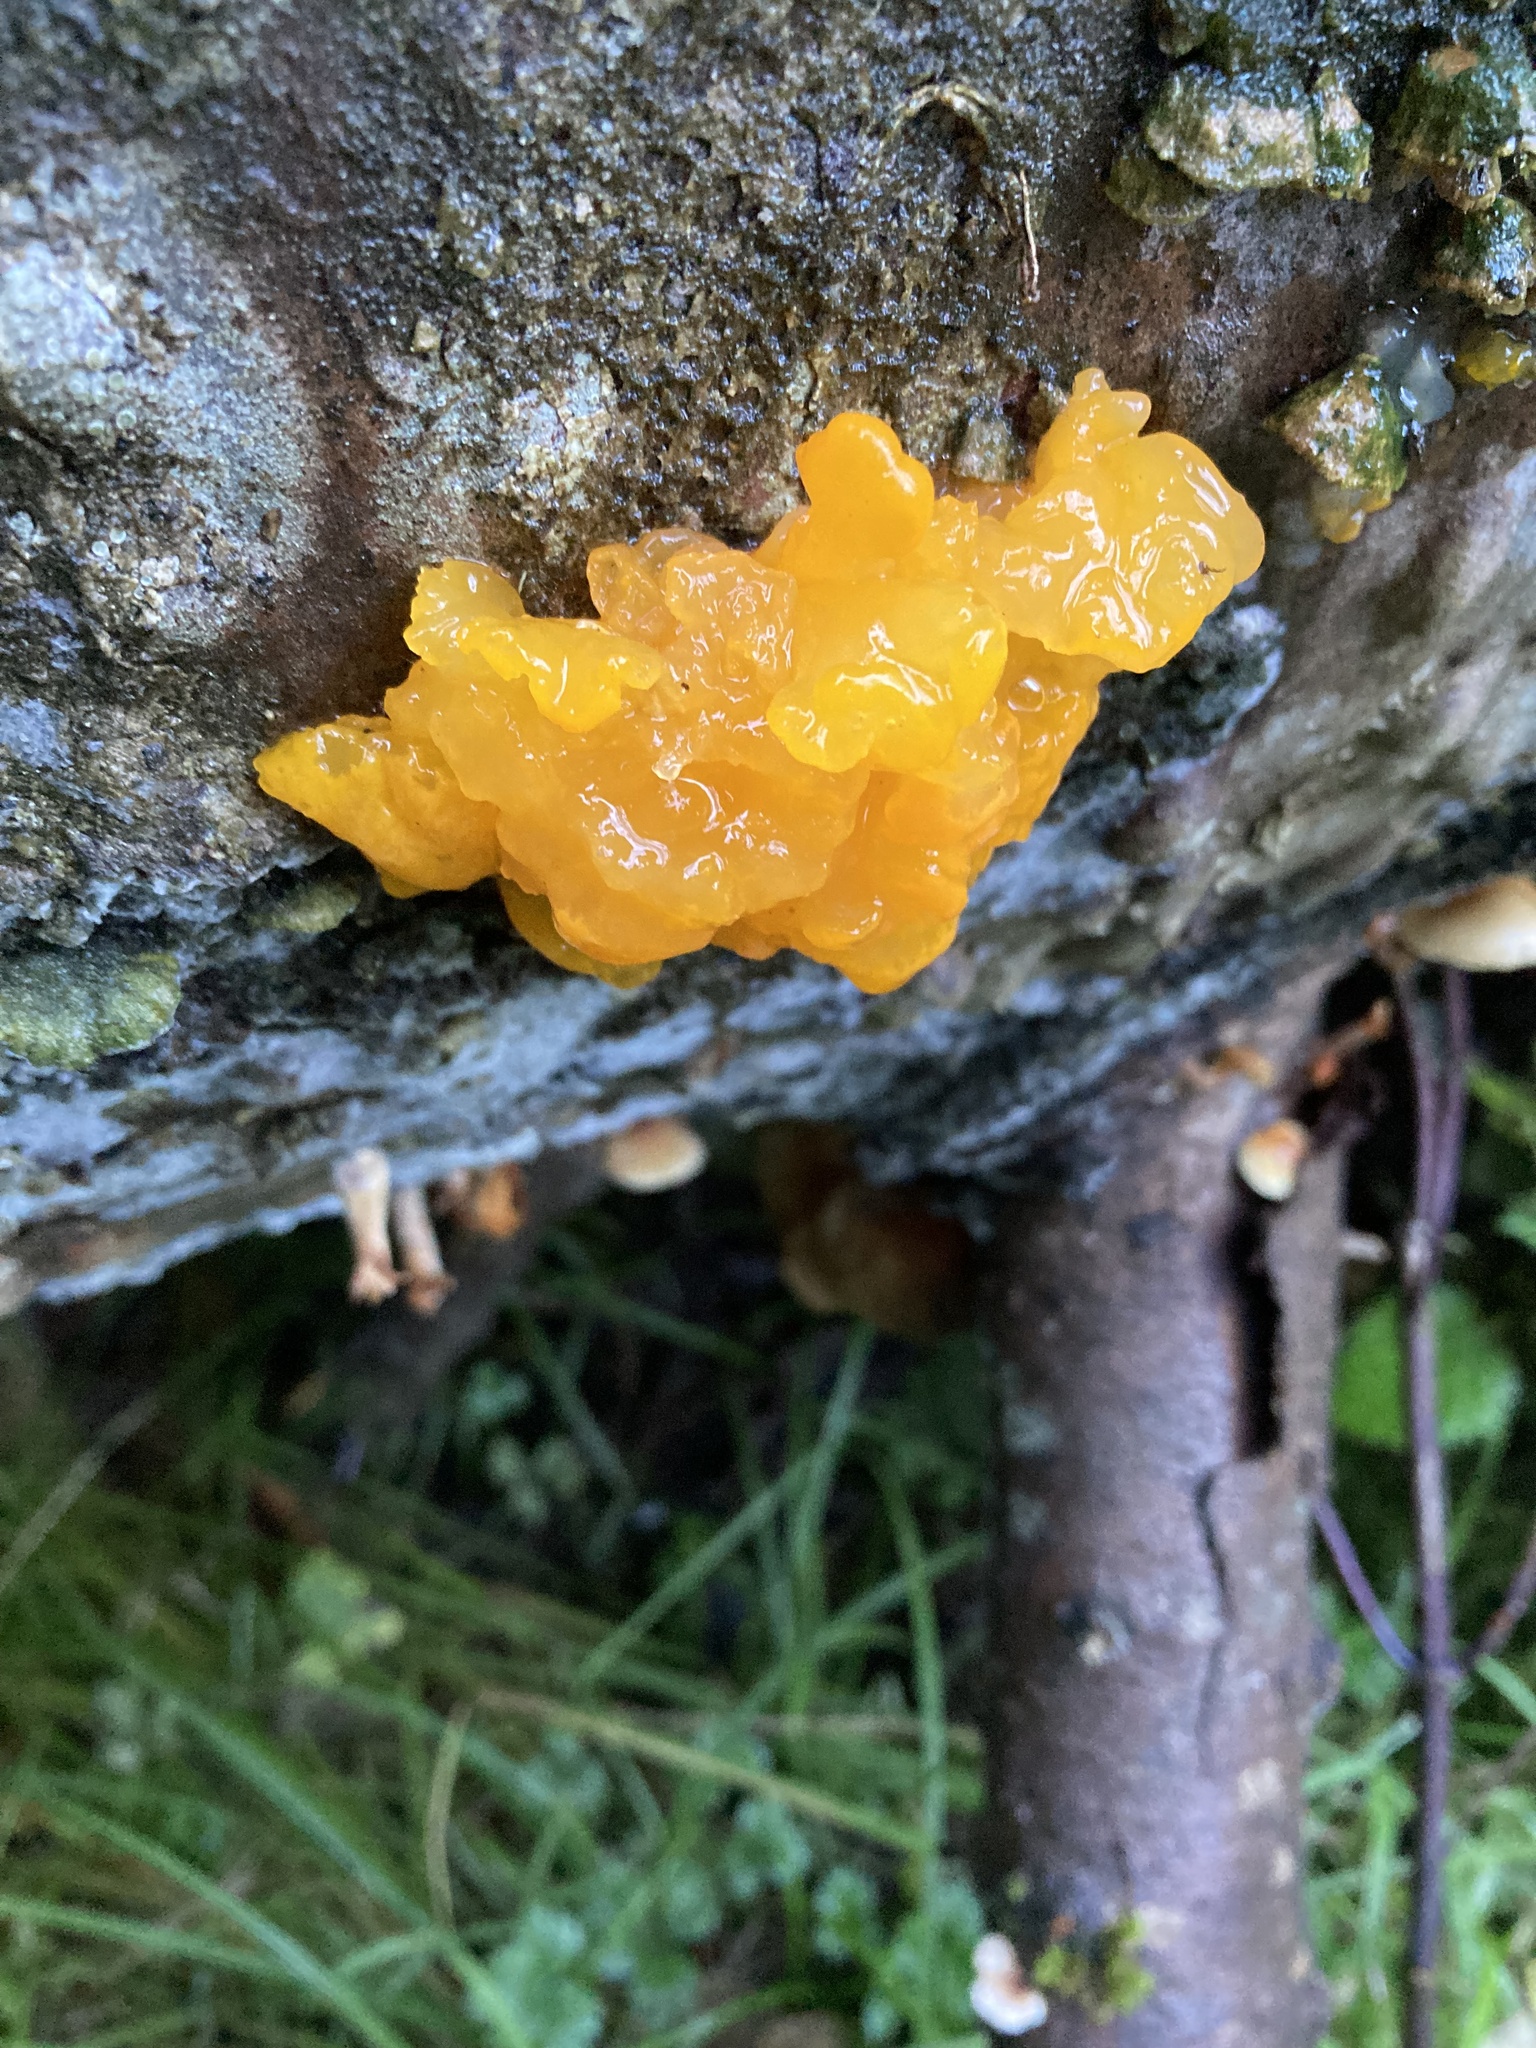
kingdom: Fungi
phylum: Basidiomycota
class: Tremellomycetes
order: Tremellales
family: Tremellaceae
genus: Tremella
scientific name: Tremella mesenterica
